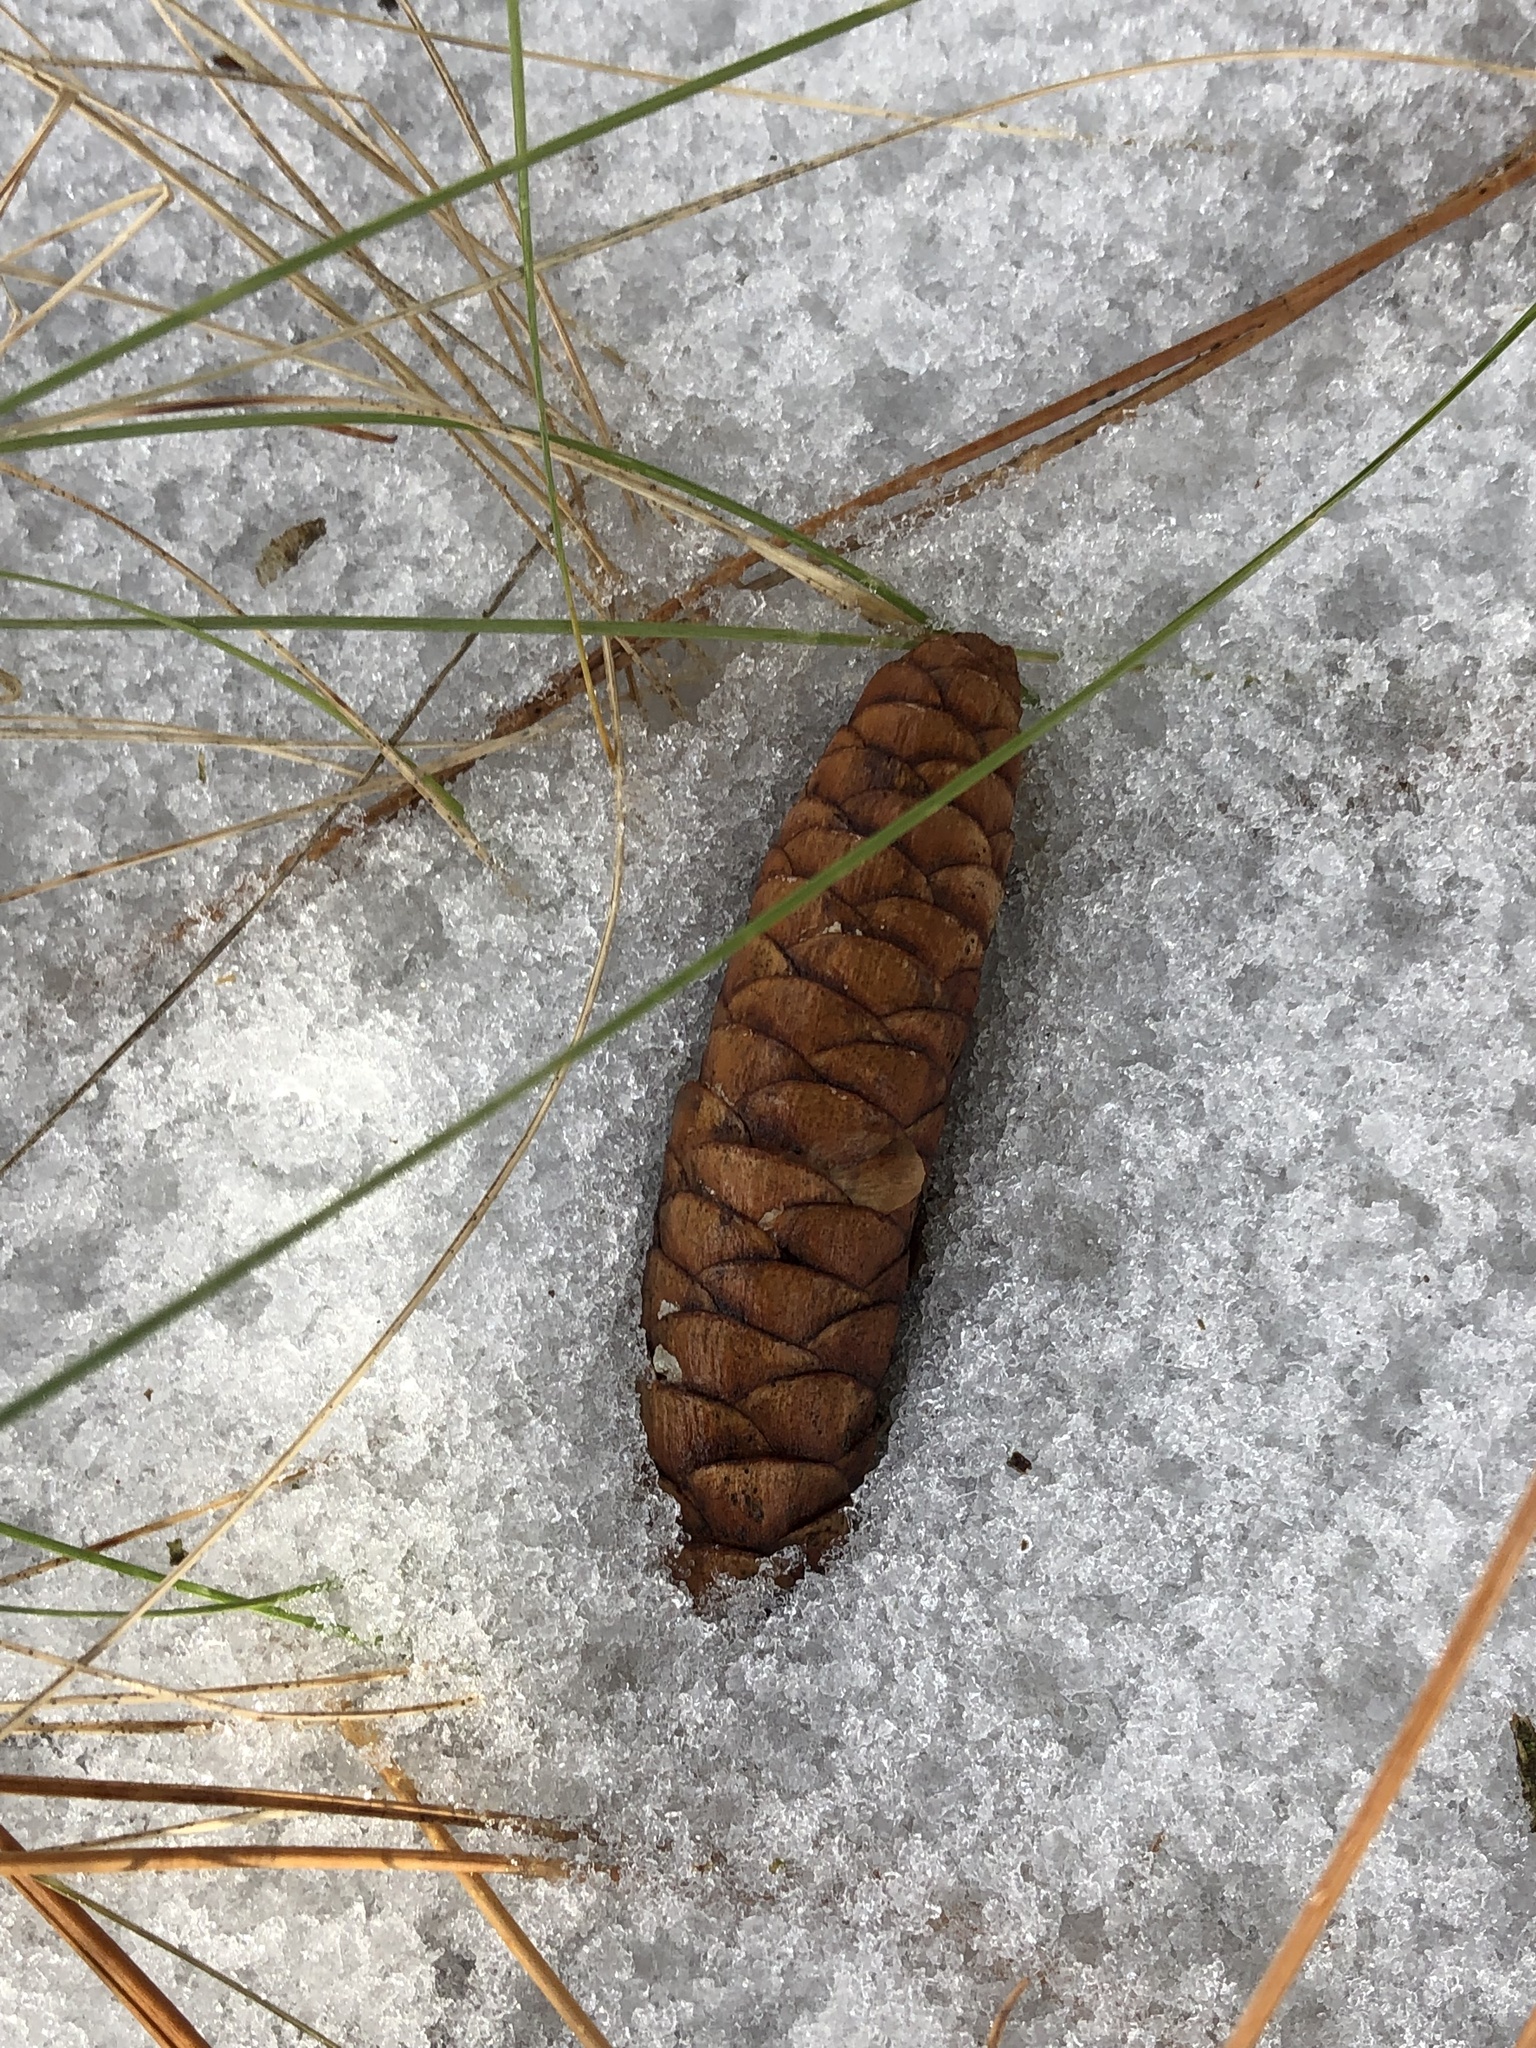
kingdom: Plantae
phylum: Tracheophyta
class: Pinopsida
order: Pinales
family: Pinaceae
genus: Picea
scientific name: Picea glauca
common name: White spruce
